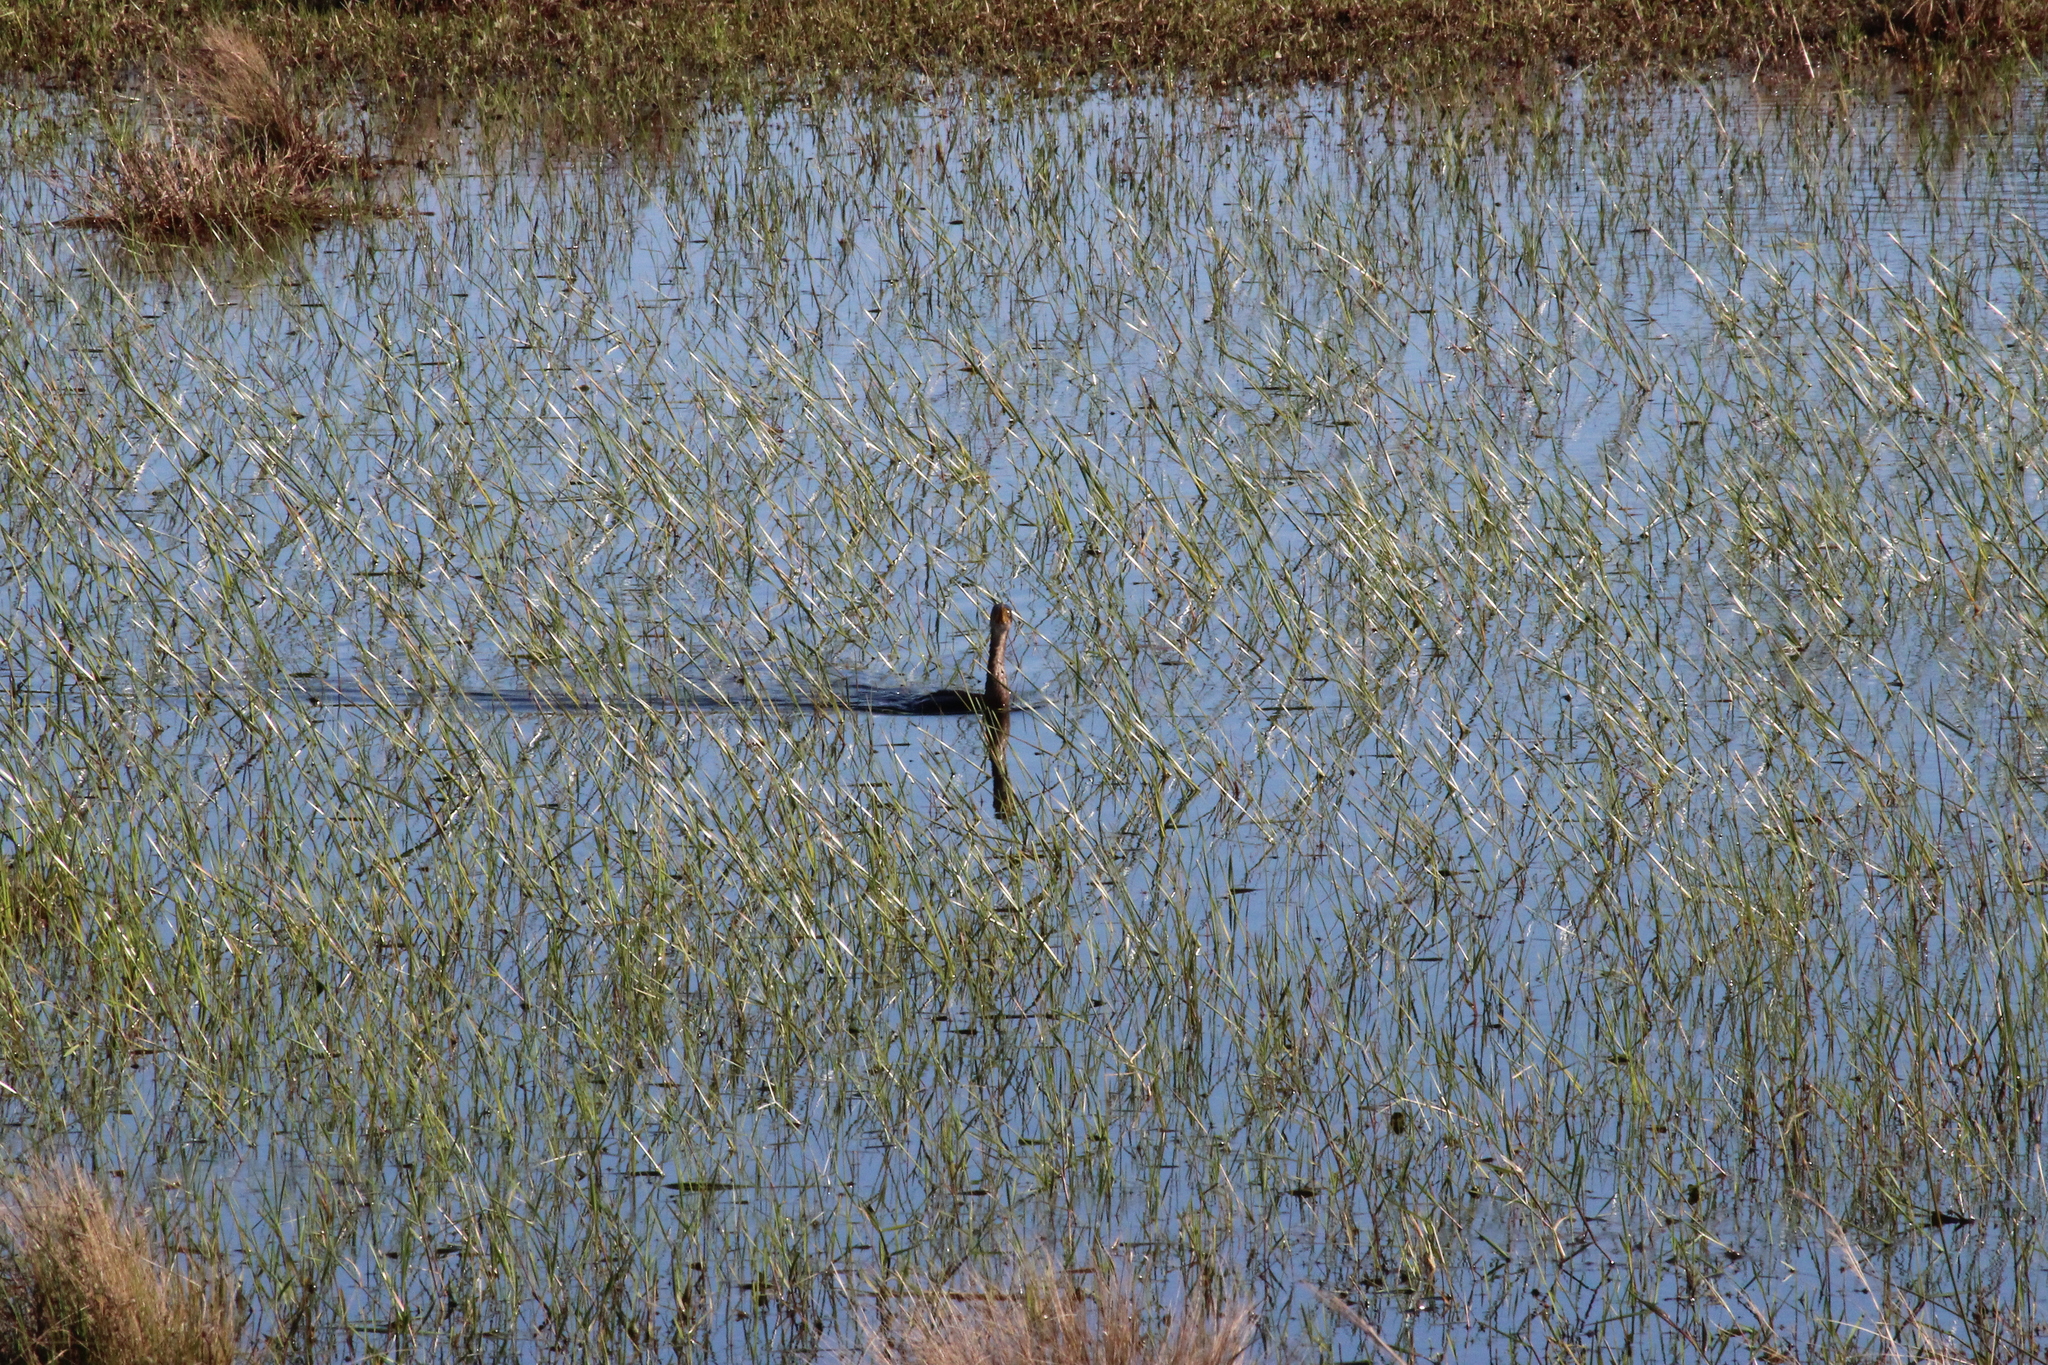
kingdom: Animalia
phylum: Chordata
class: Aves
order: Suliformes
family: Phalacrocoracidae
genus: Microcarbo
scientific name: Microcarbo africanus
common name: Long-tailed cormorant
